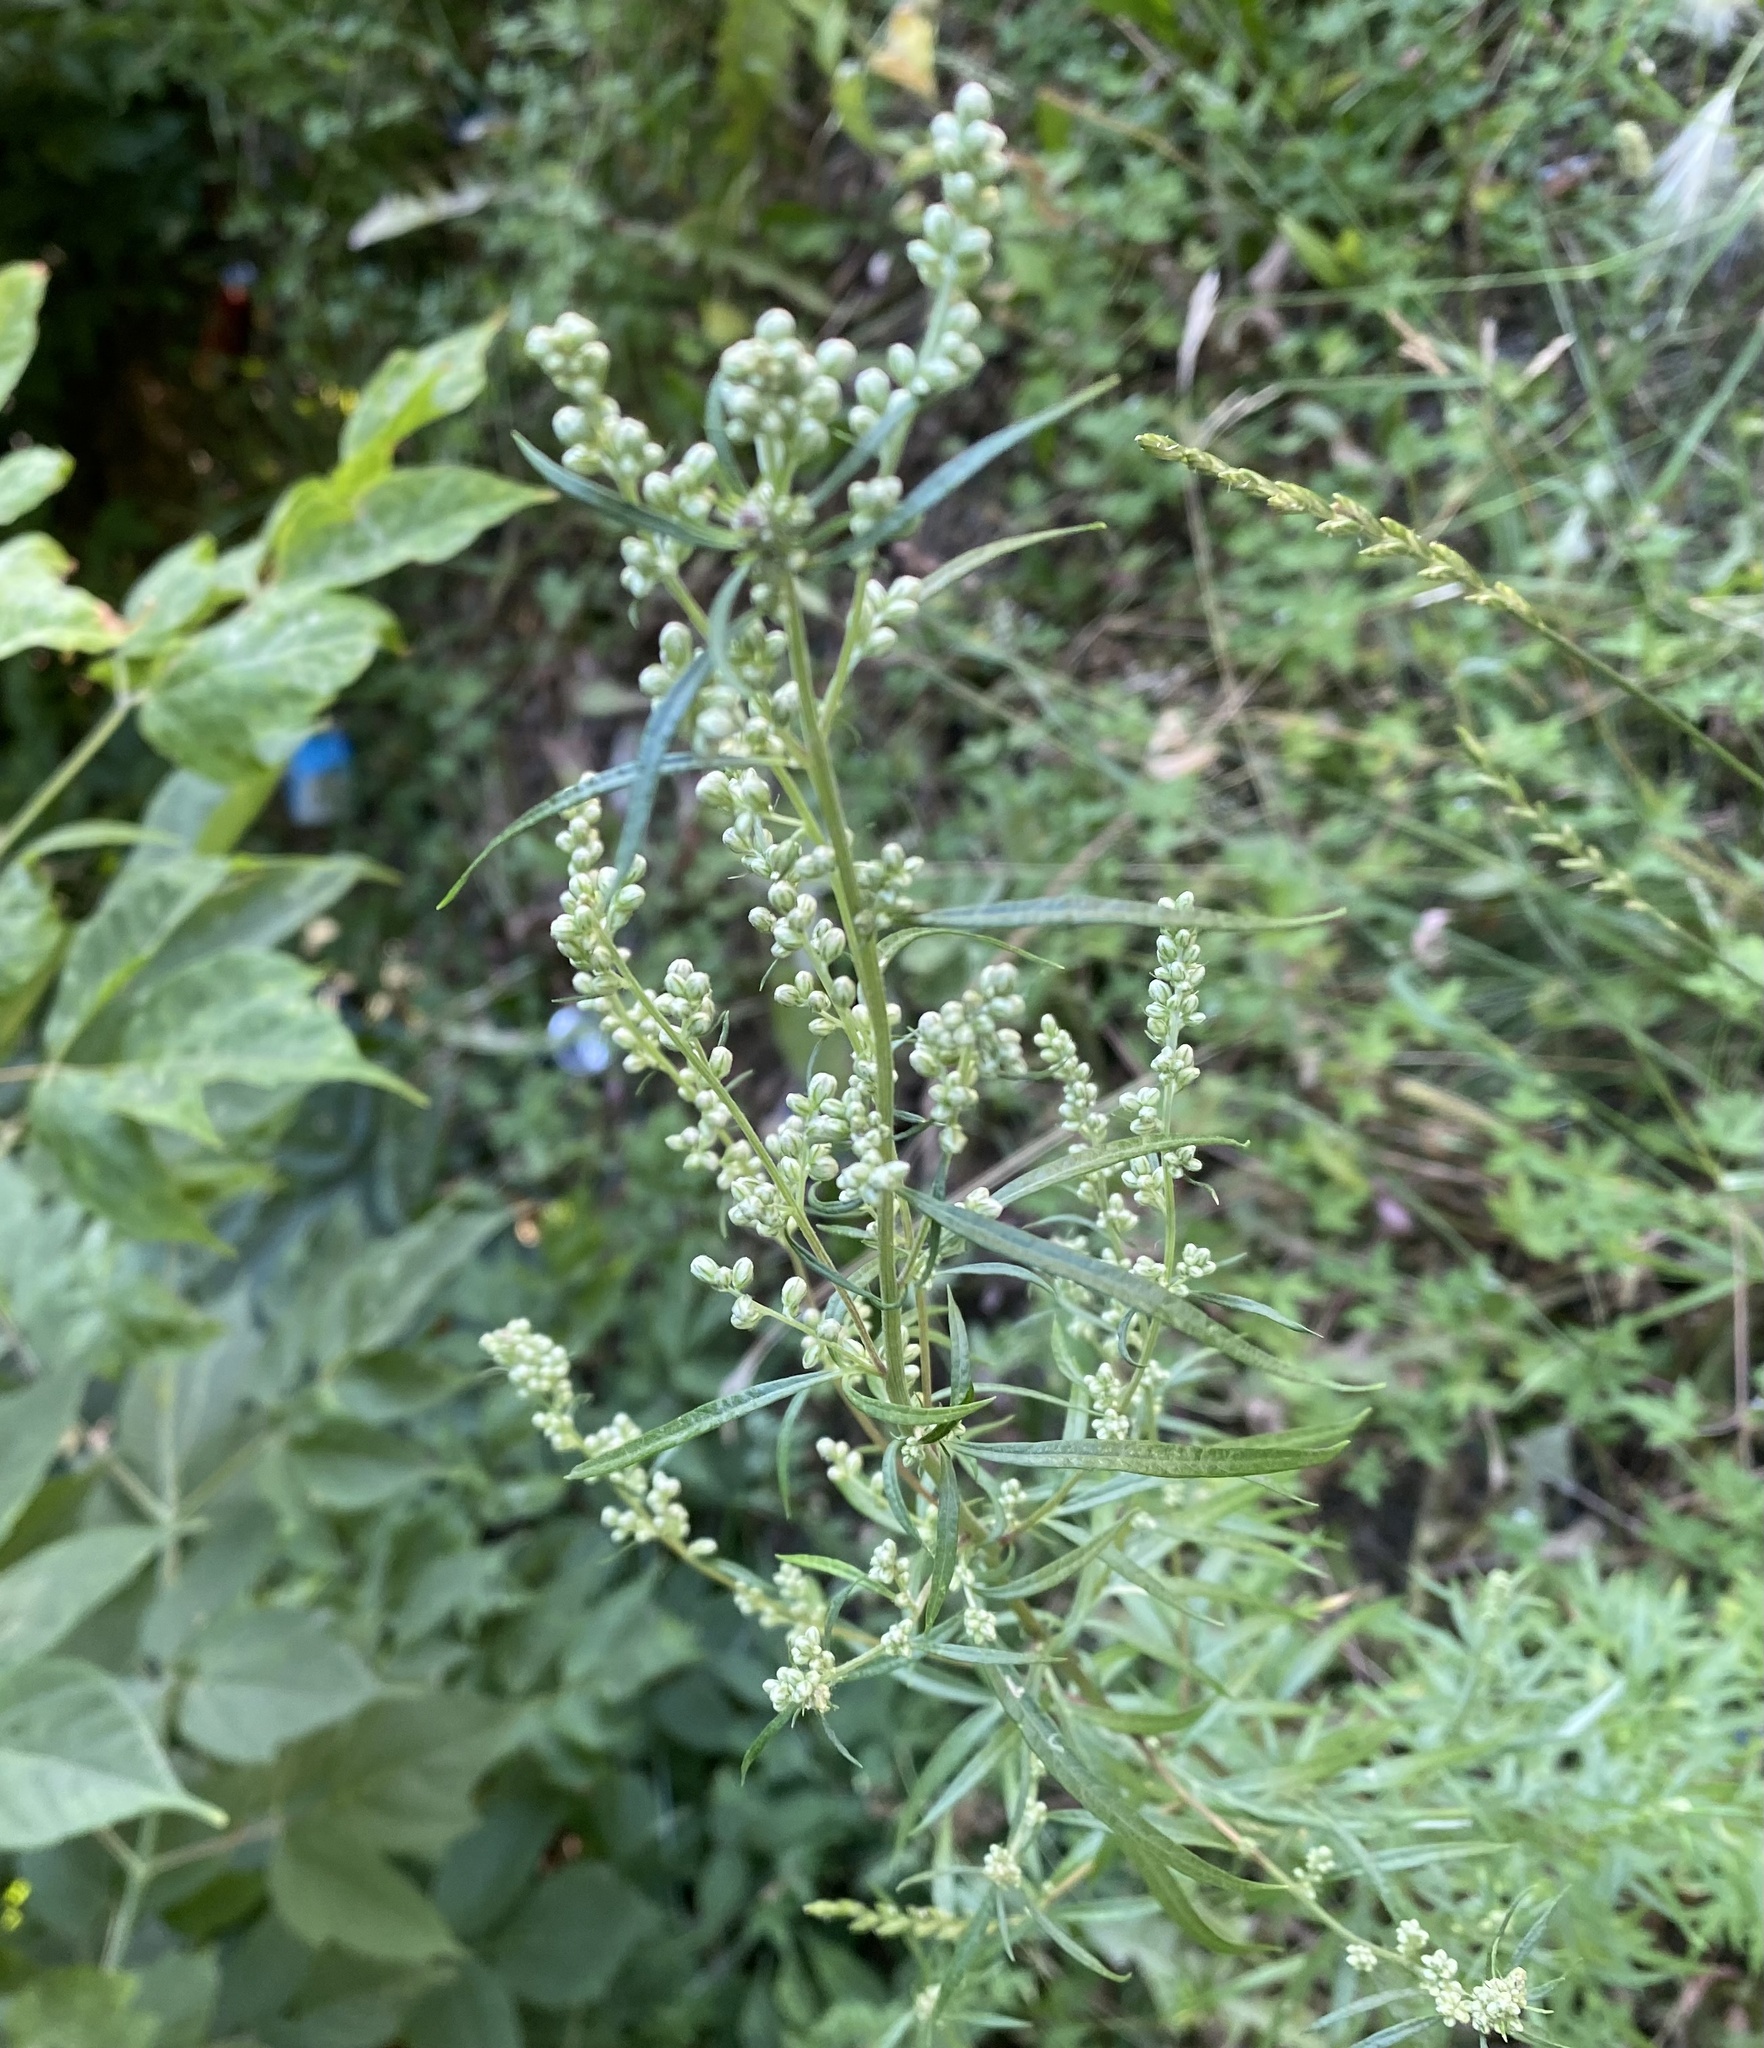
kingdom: Plantae
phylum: Tracheophyta
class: Magnoliopsida
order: Asterales
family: Asteraceae
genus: Artemisia
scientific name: Artemisia vulgaris
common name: Mugwort
